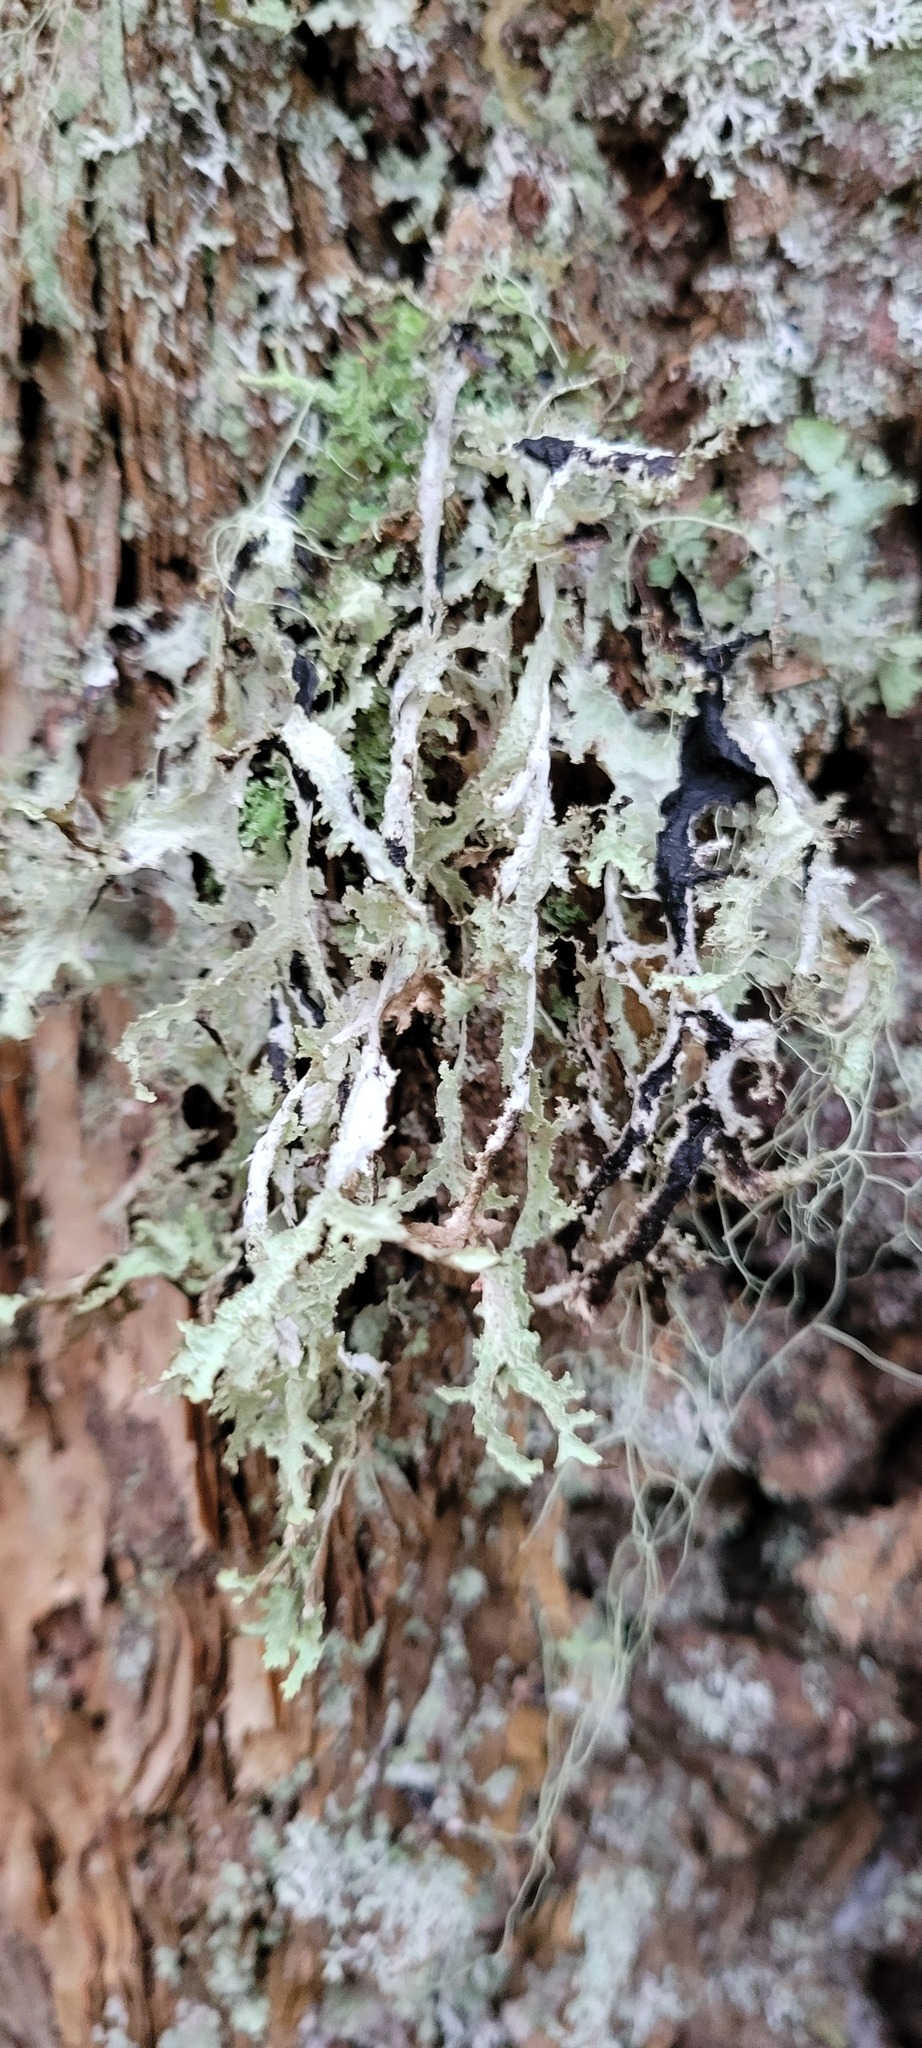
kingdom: Fungi
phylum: Ascomycota
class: Lecanoromycetes
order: Lecanorales
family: Parmeliaceae
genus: Platismatia
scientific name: Platismatia herrei
